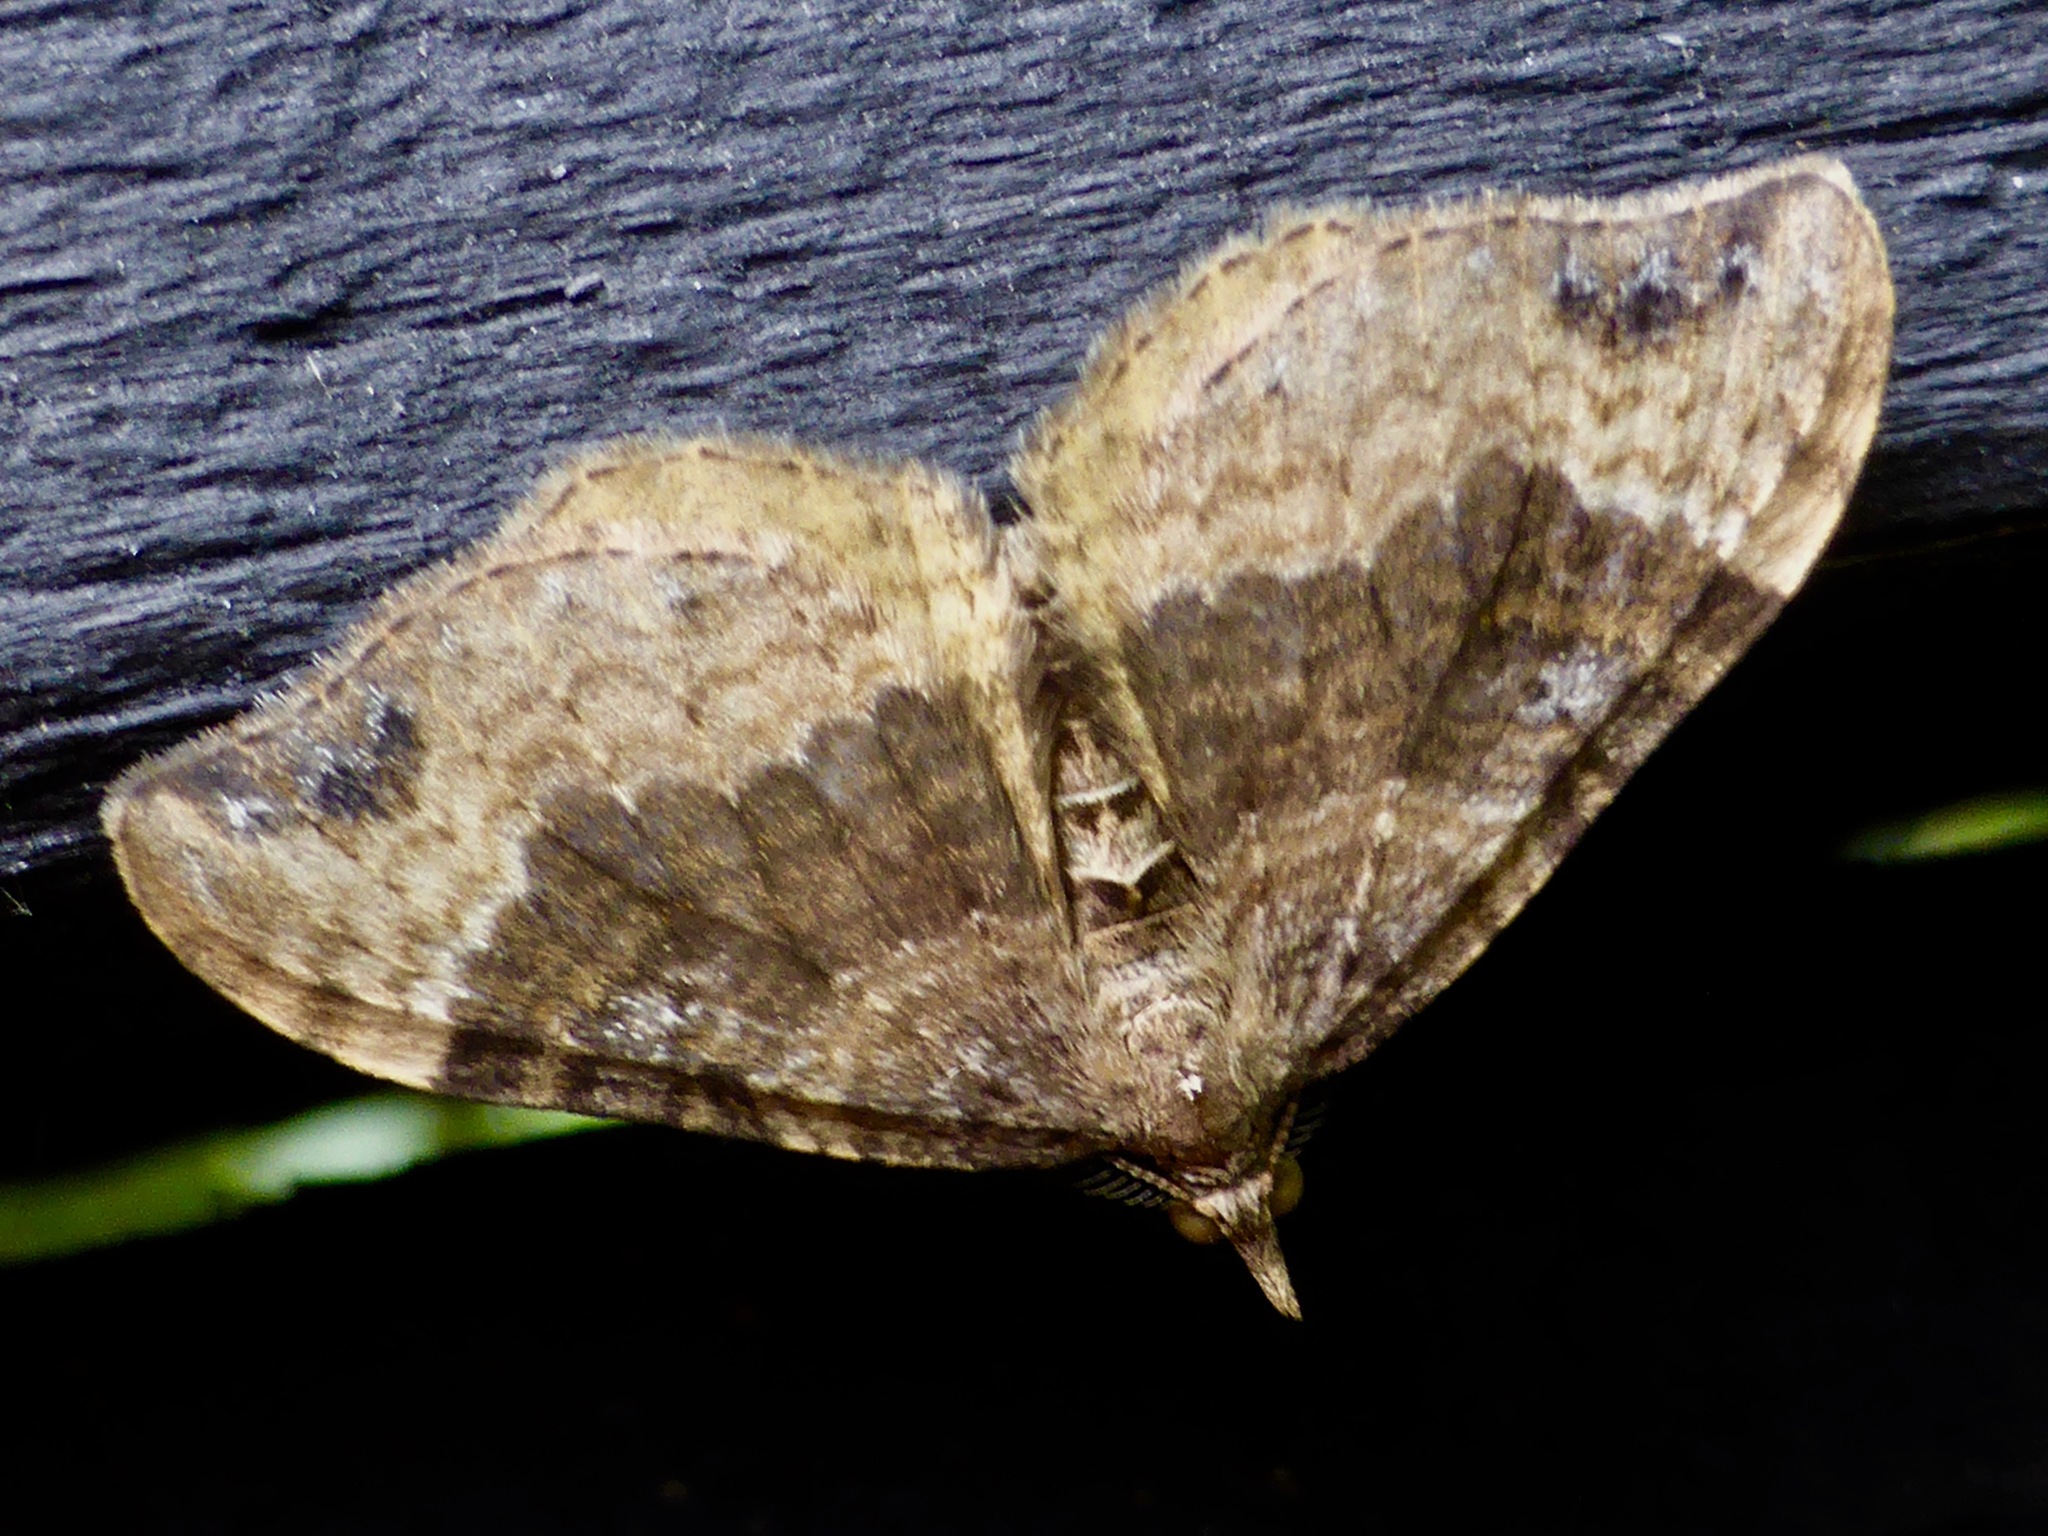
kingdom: Animalia
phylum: Arthropoda
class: Insecta
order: Lepidoptera
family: Geometridae
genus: Homodotis
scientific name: Homodotis megaspilata
